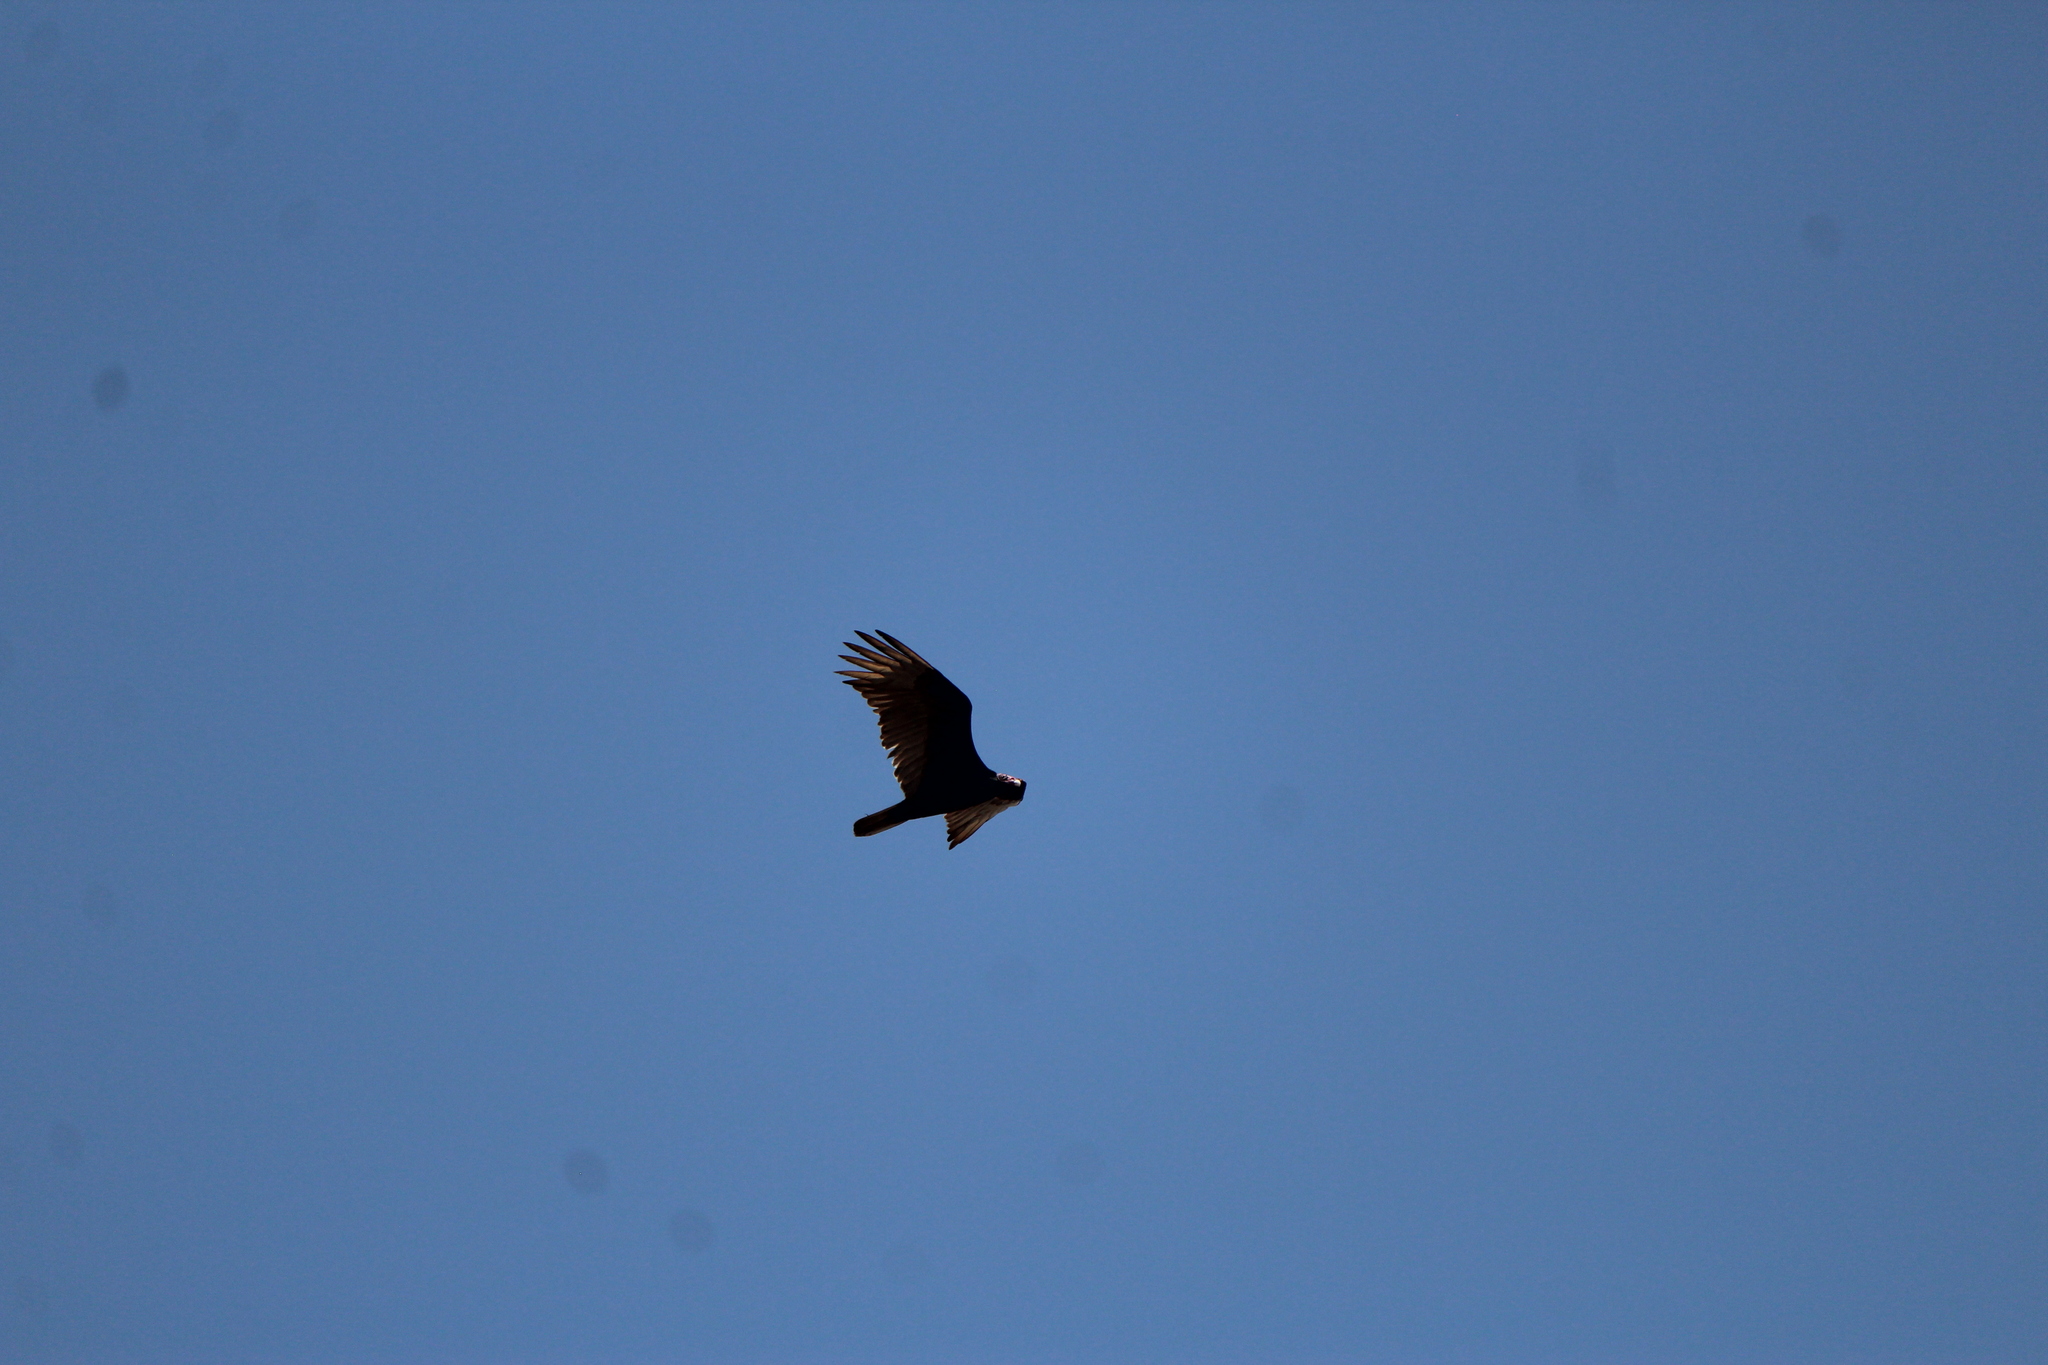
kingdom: Animalia
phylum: Chordata
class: Aves
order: Accipitriformes
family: Cathartidae
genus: Cathartes
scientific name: Cathartes aura
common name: Turkey vulture
